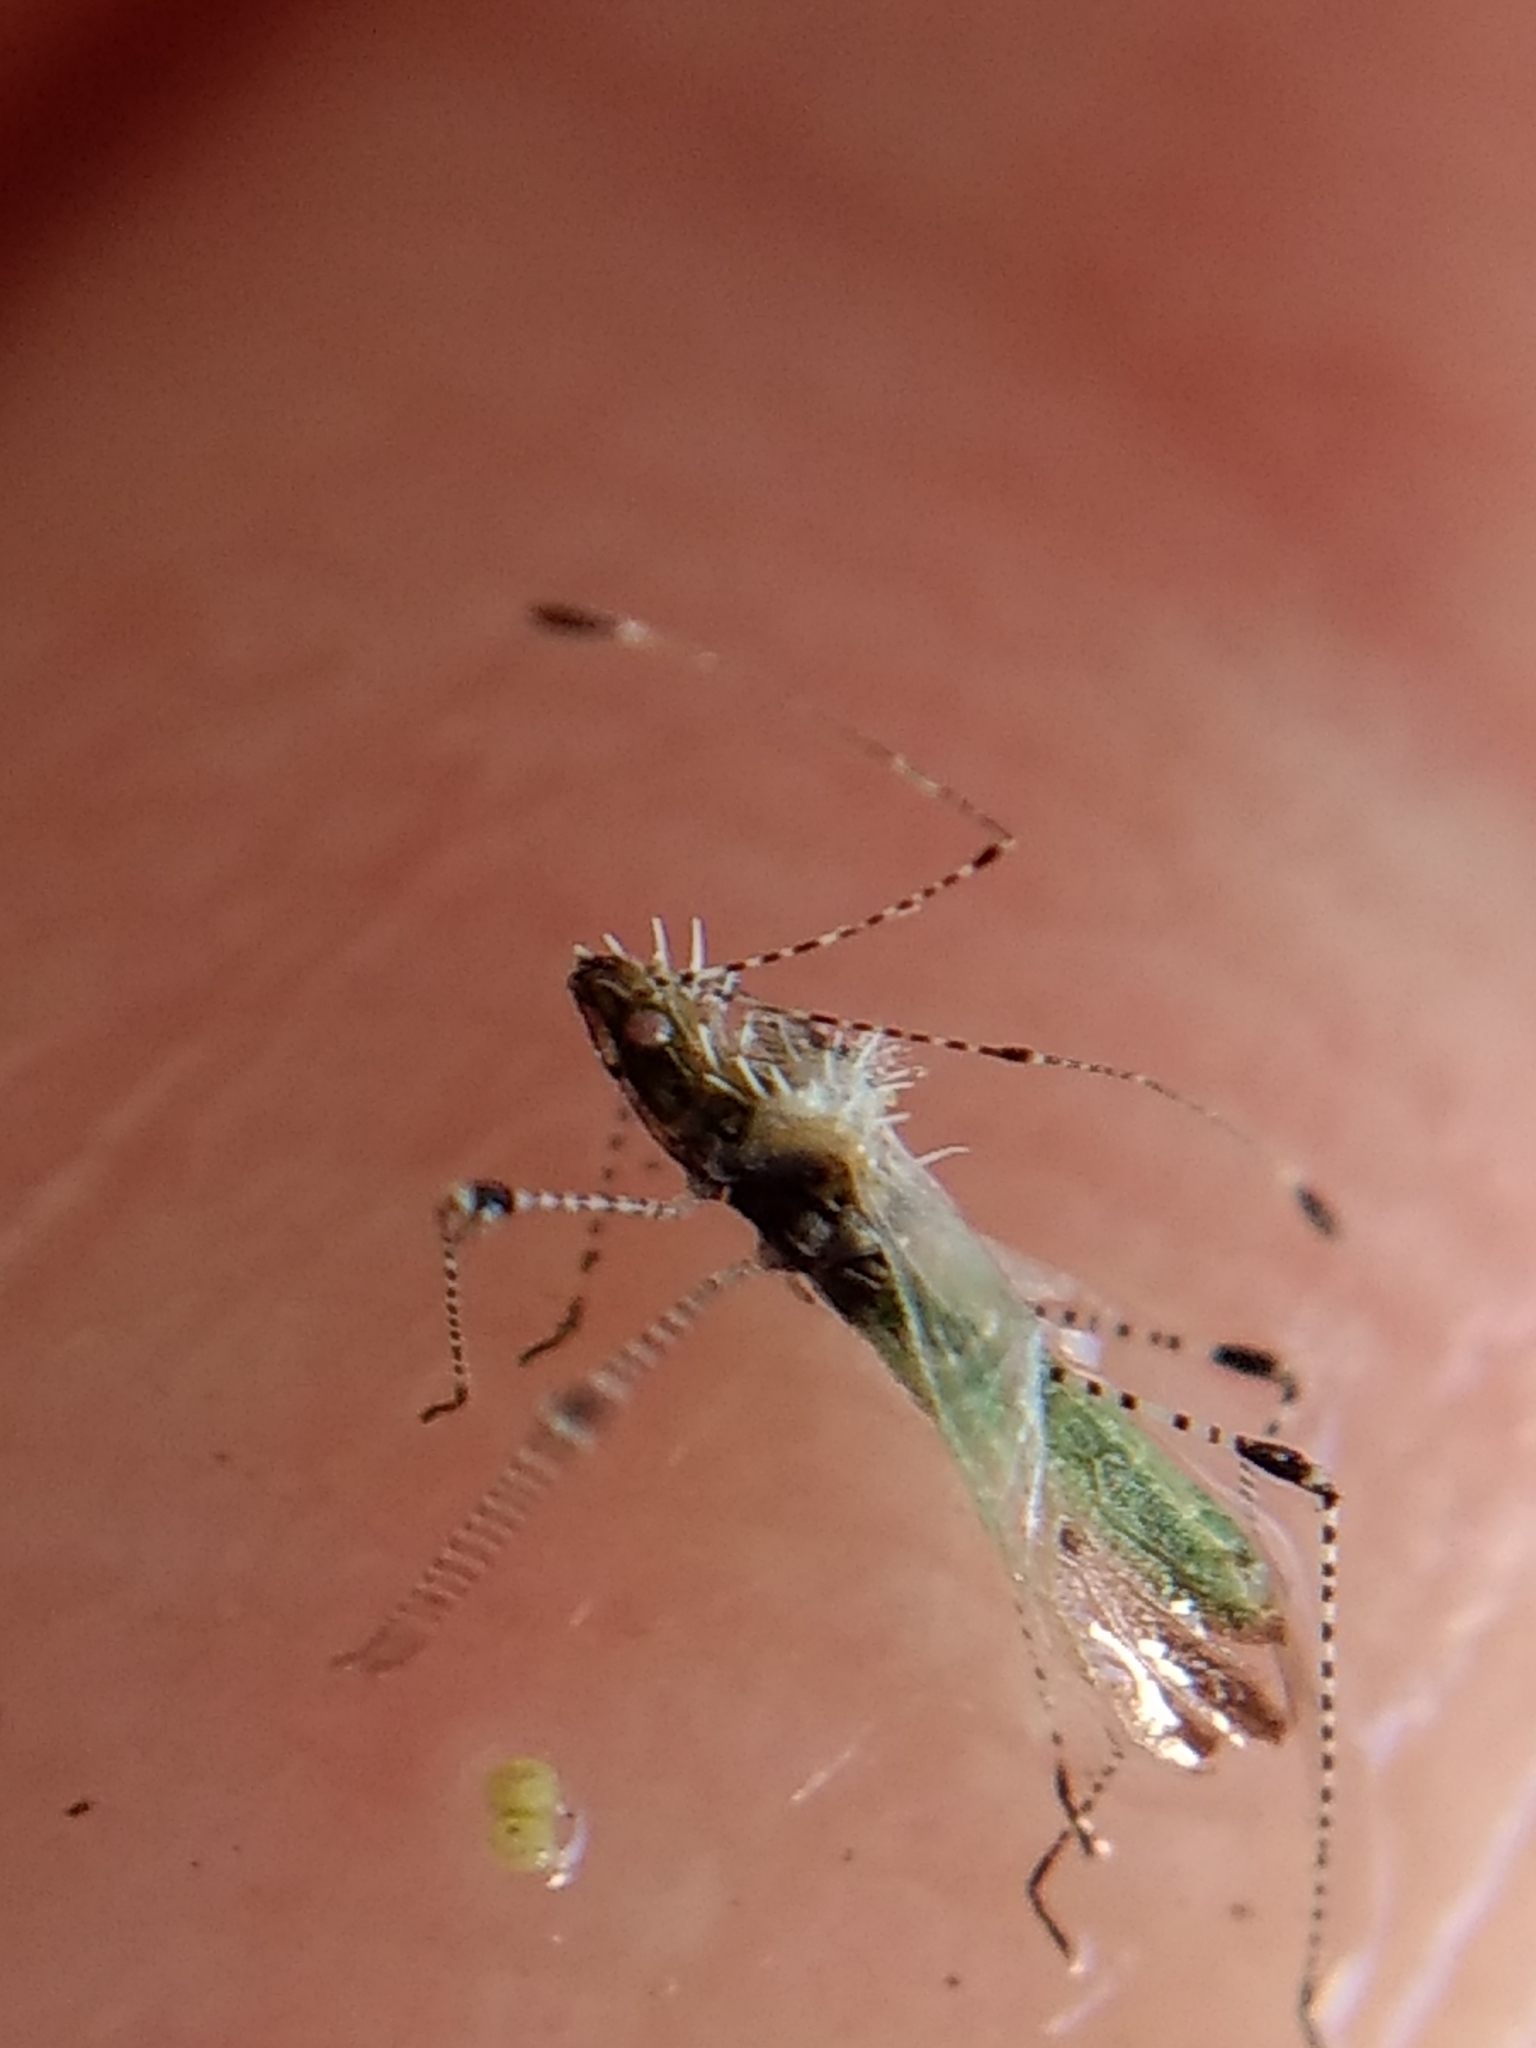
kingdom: Animalia
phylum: Arthropoda
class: Insecta
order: Hemiptera
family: Berytidae
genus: Hoplinus
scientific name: Hoplinus echinatus
